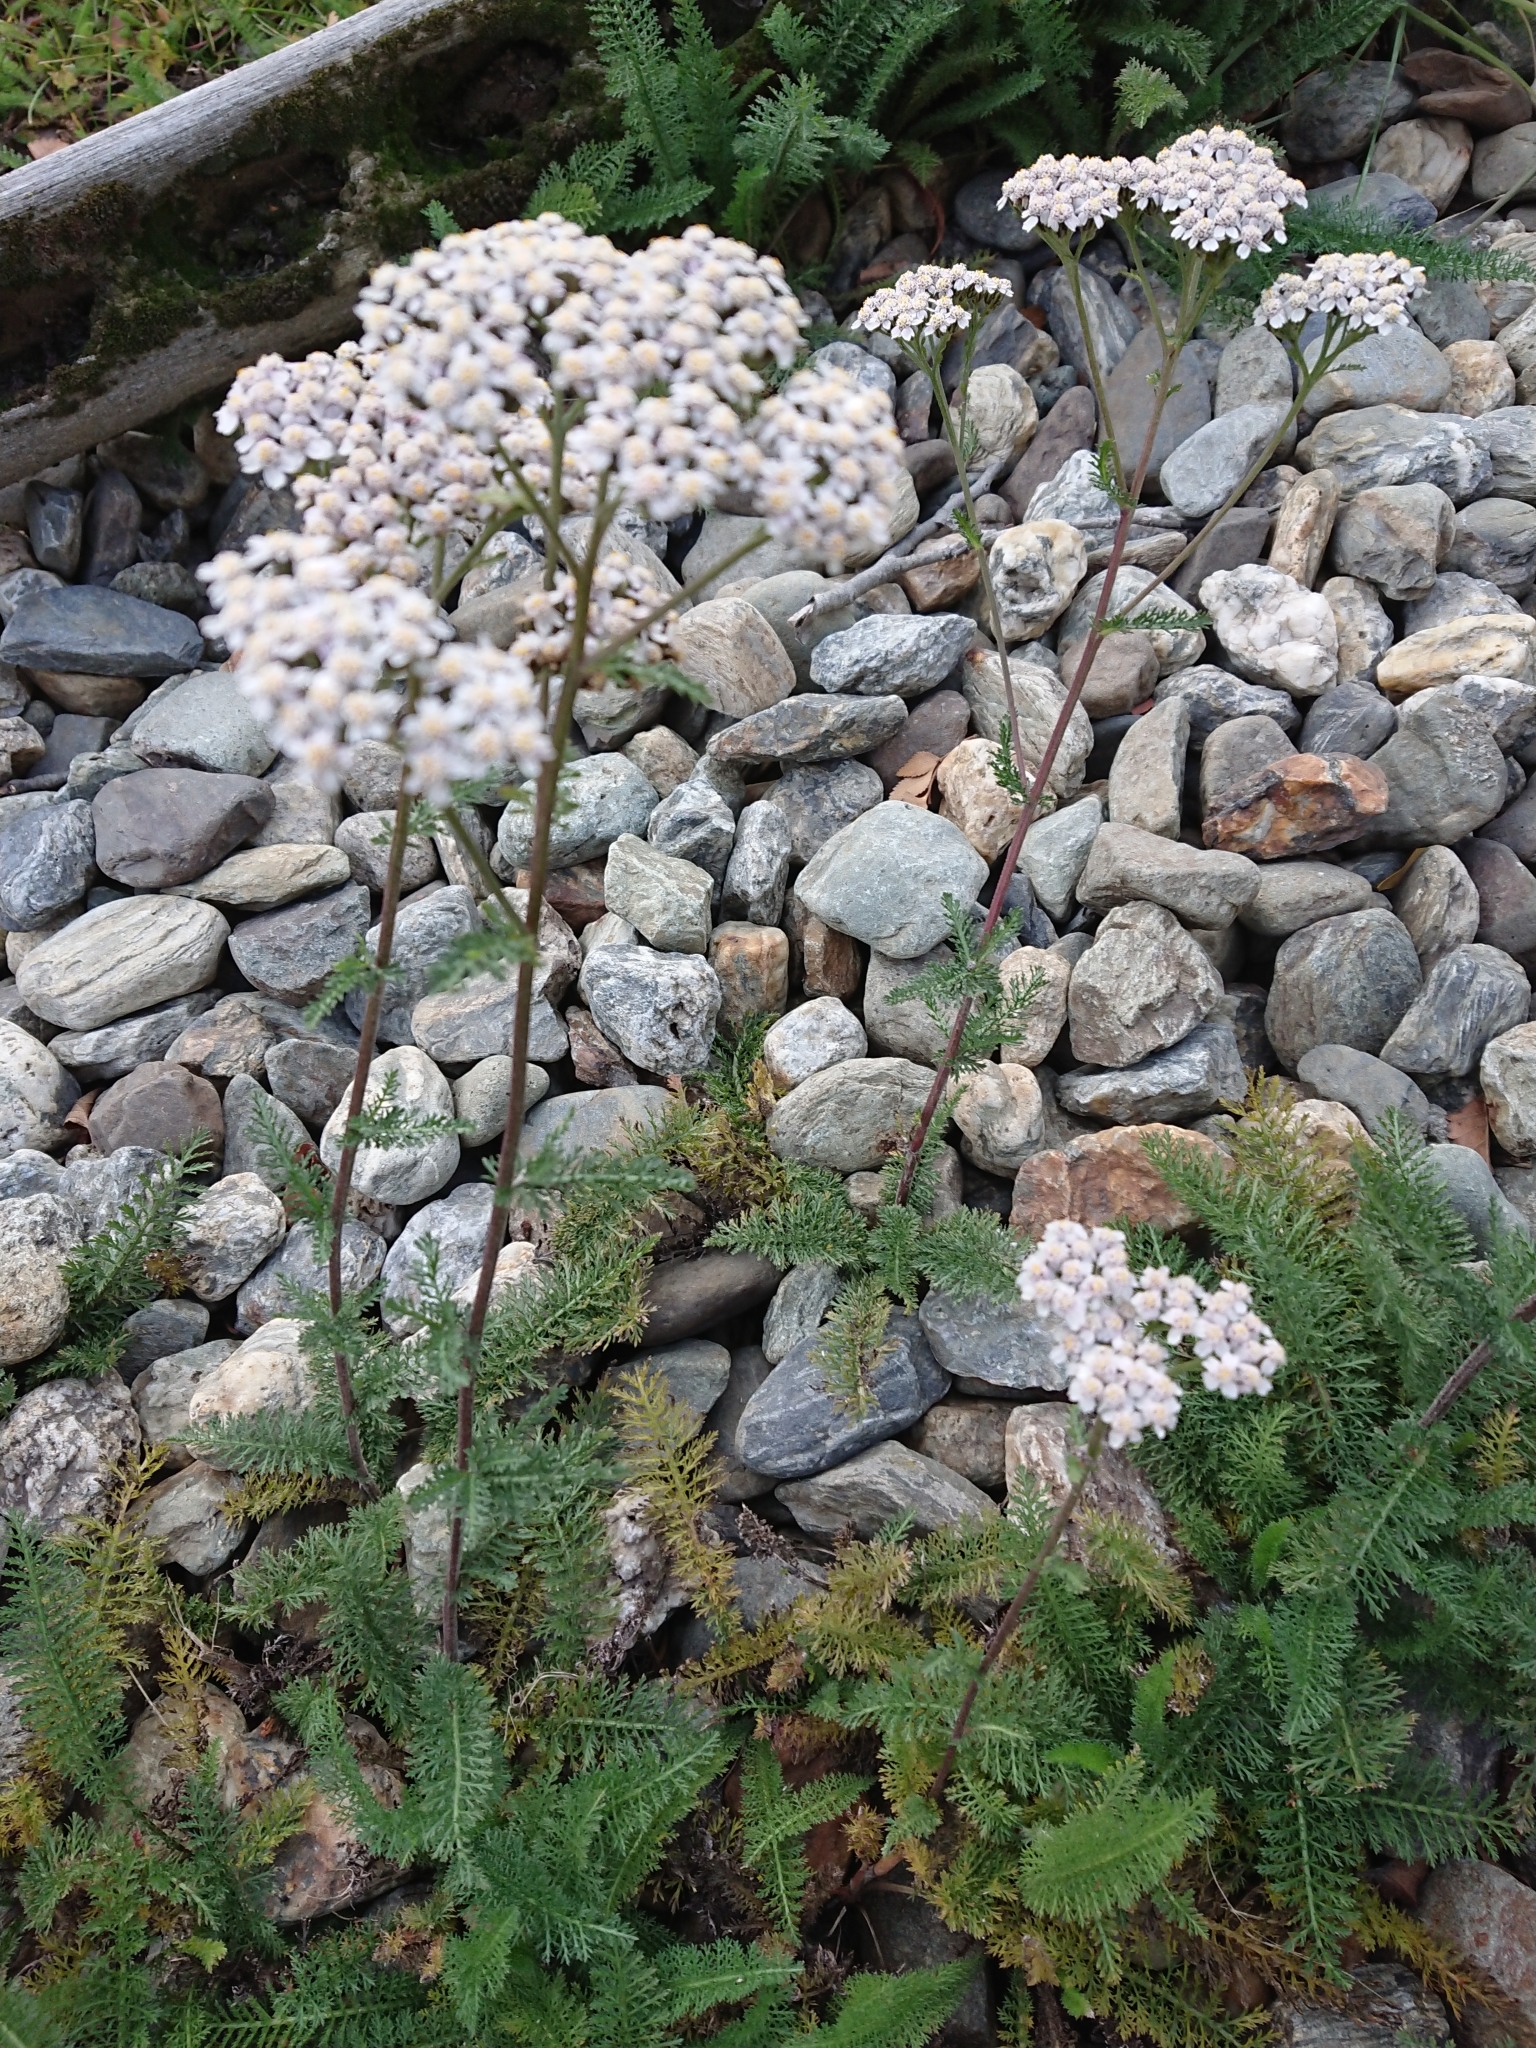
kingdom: Plantae
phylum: Tracheophyta
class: Magnoliopsida
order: Asterales
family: Asteraceae
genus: Achillea
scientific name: Achillea millefolium
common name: Yarrow
